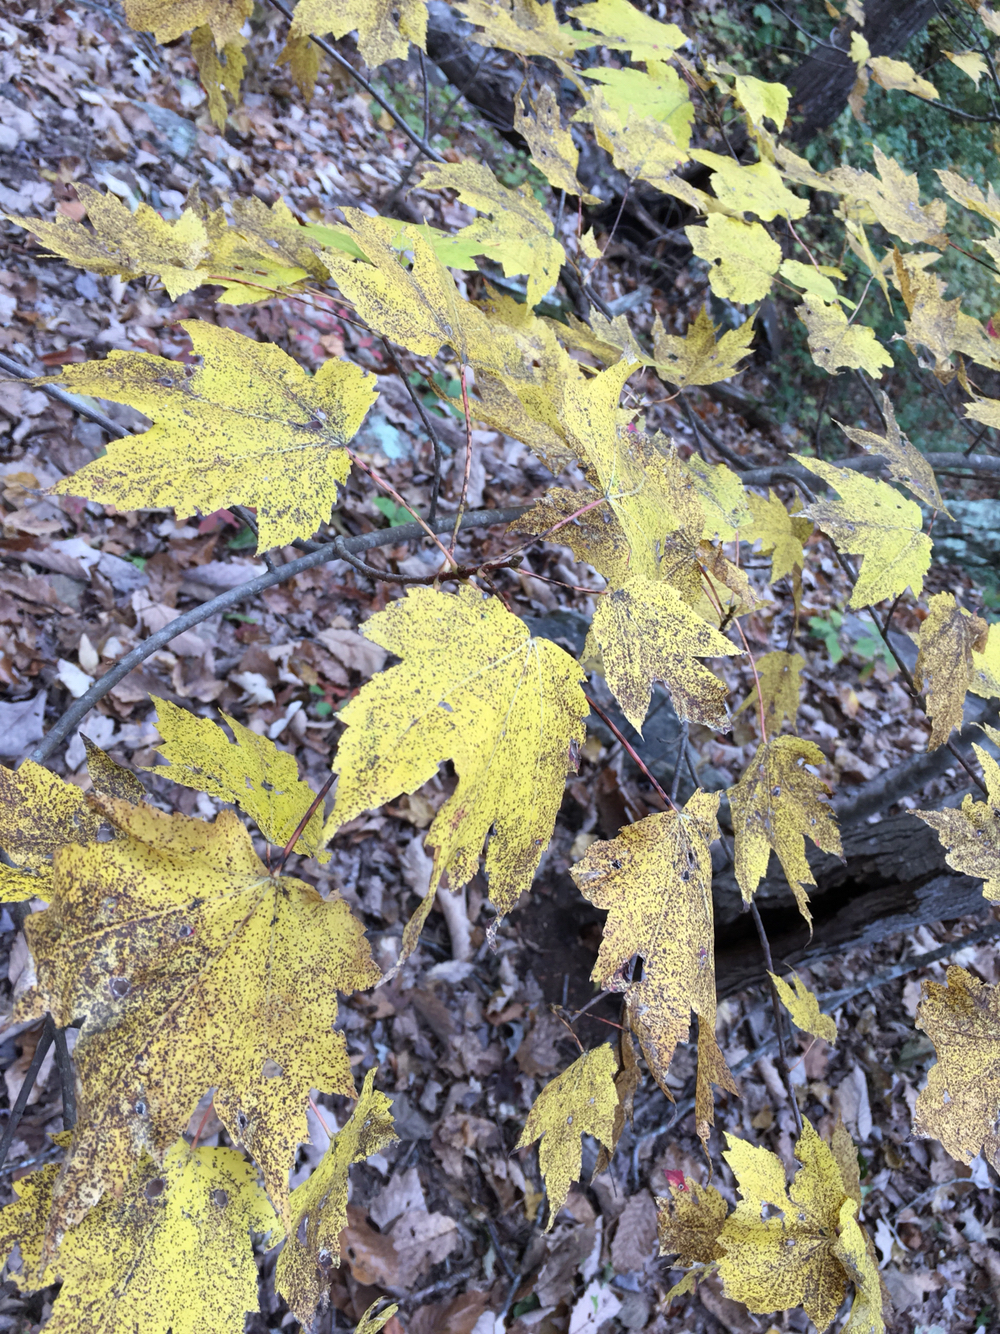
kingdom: Plantae
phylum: Tracheophyta
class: Magnoliopsida
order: Sapindales
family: Sapindaceae
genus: Acer
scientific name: Acer rubrum
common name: Red maple
